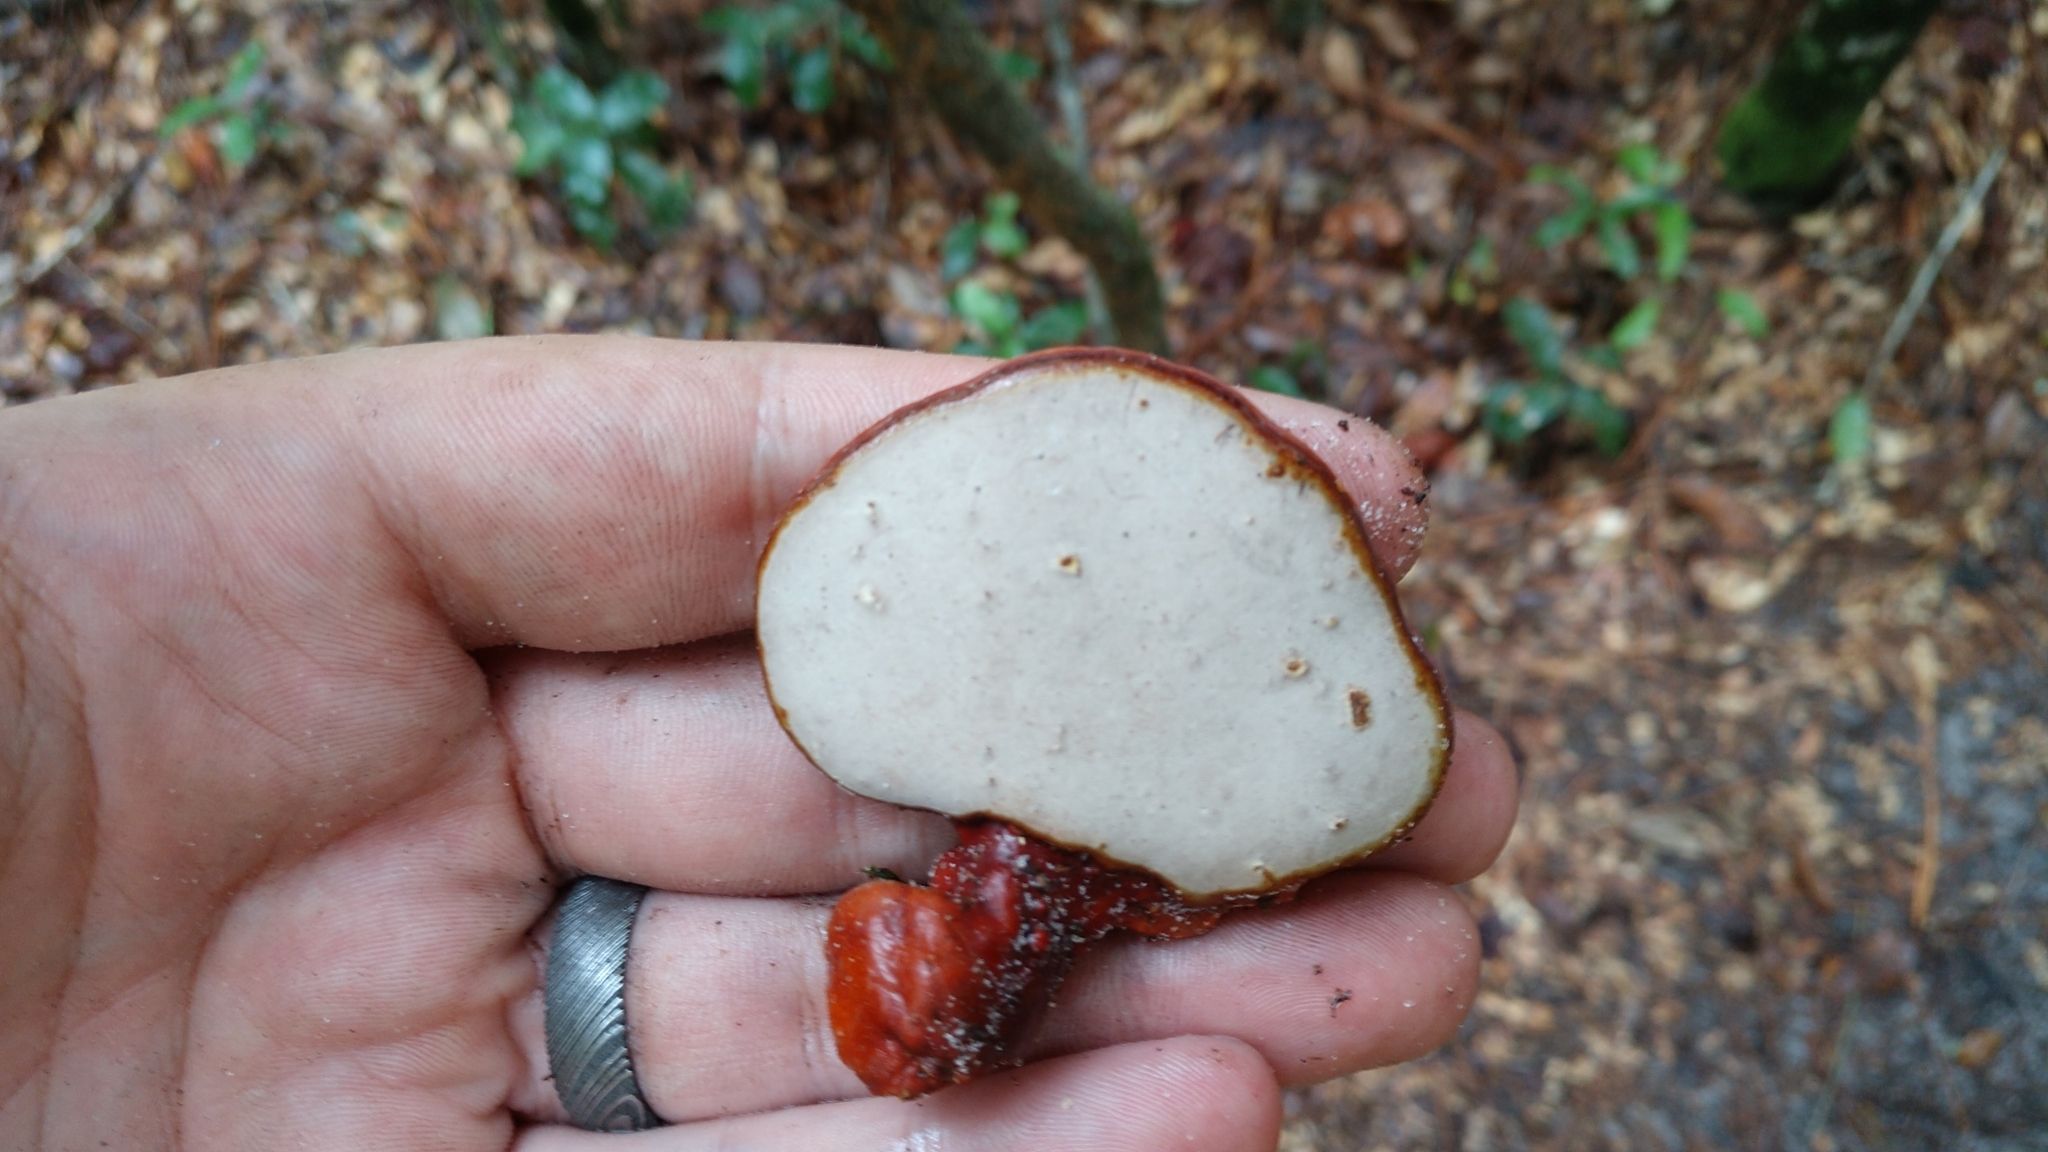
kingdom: Fungi
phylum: Basidiomycota
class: Agaricomycetes
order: Polyporales
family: Polyporaceae
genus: Ganoderma
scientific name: Ganoderma curtisii
